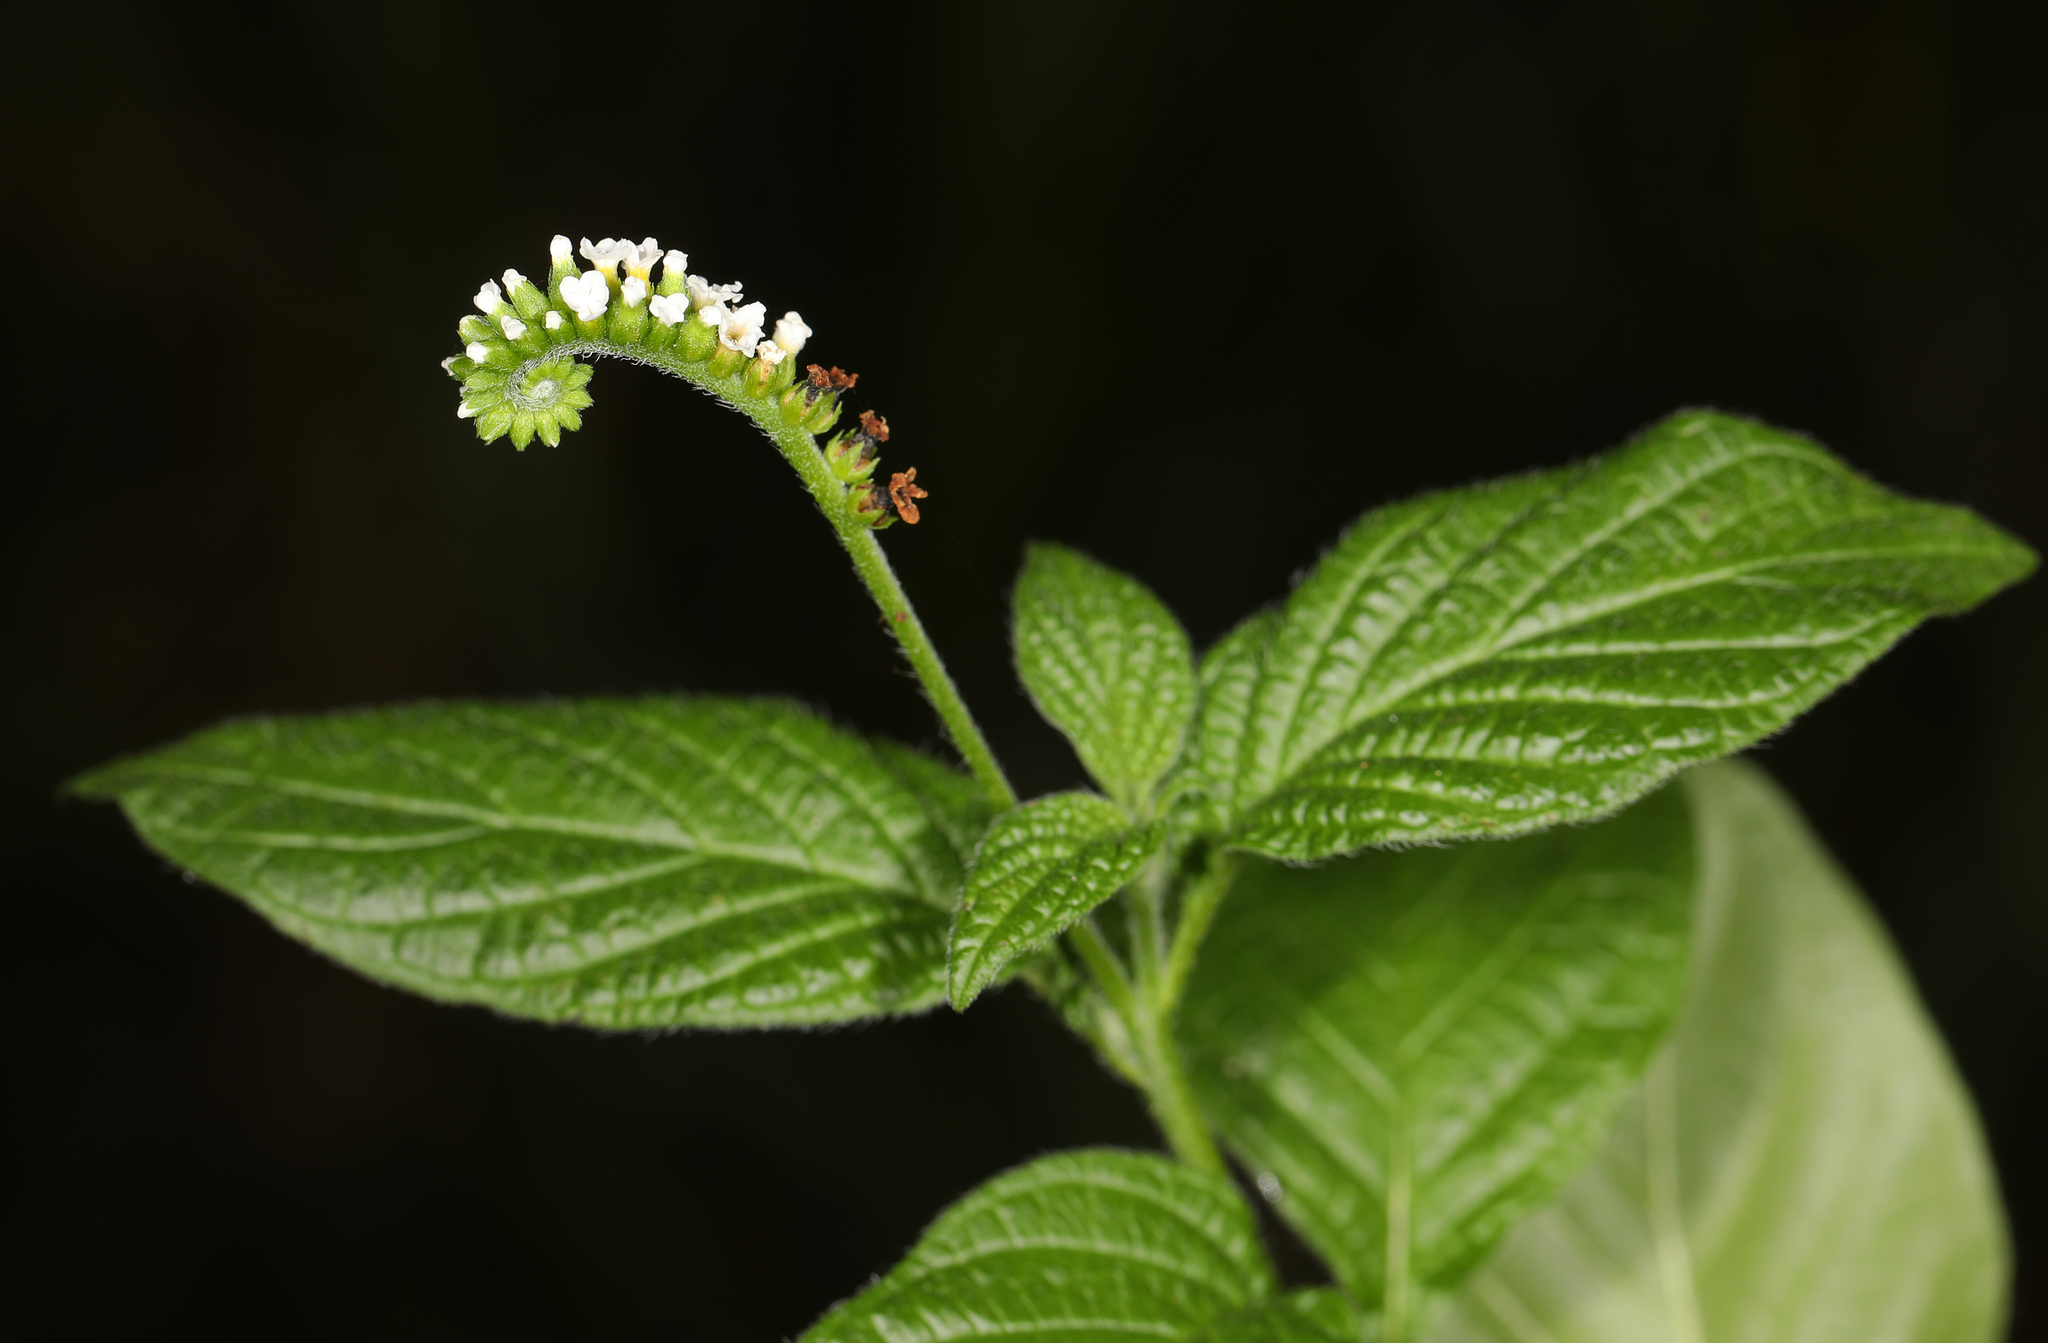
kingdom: Plantae
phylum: Tracheophyta
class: Magnoliopsida
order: Boraginales
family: Heliotropiaceae
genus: Heliotropium
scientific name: Heliotropium angiospermum
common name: Eye bright
